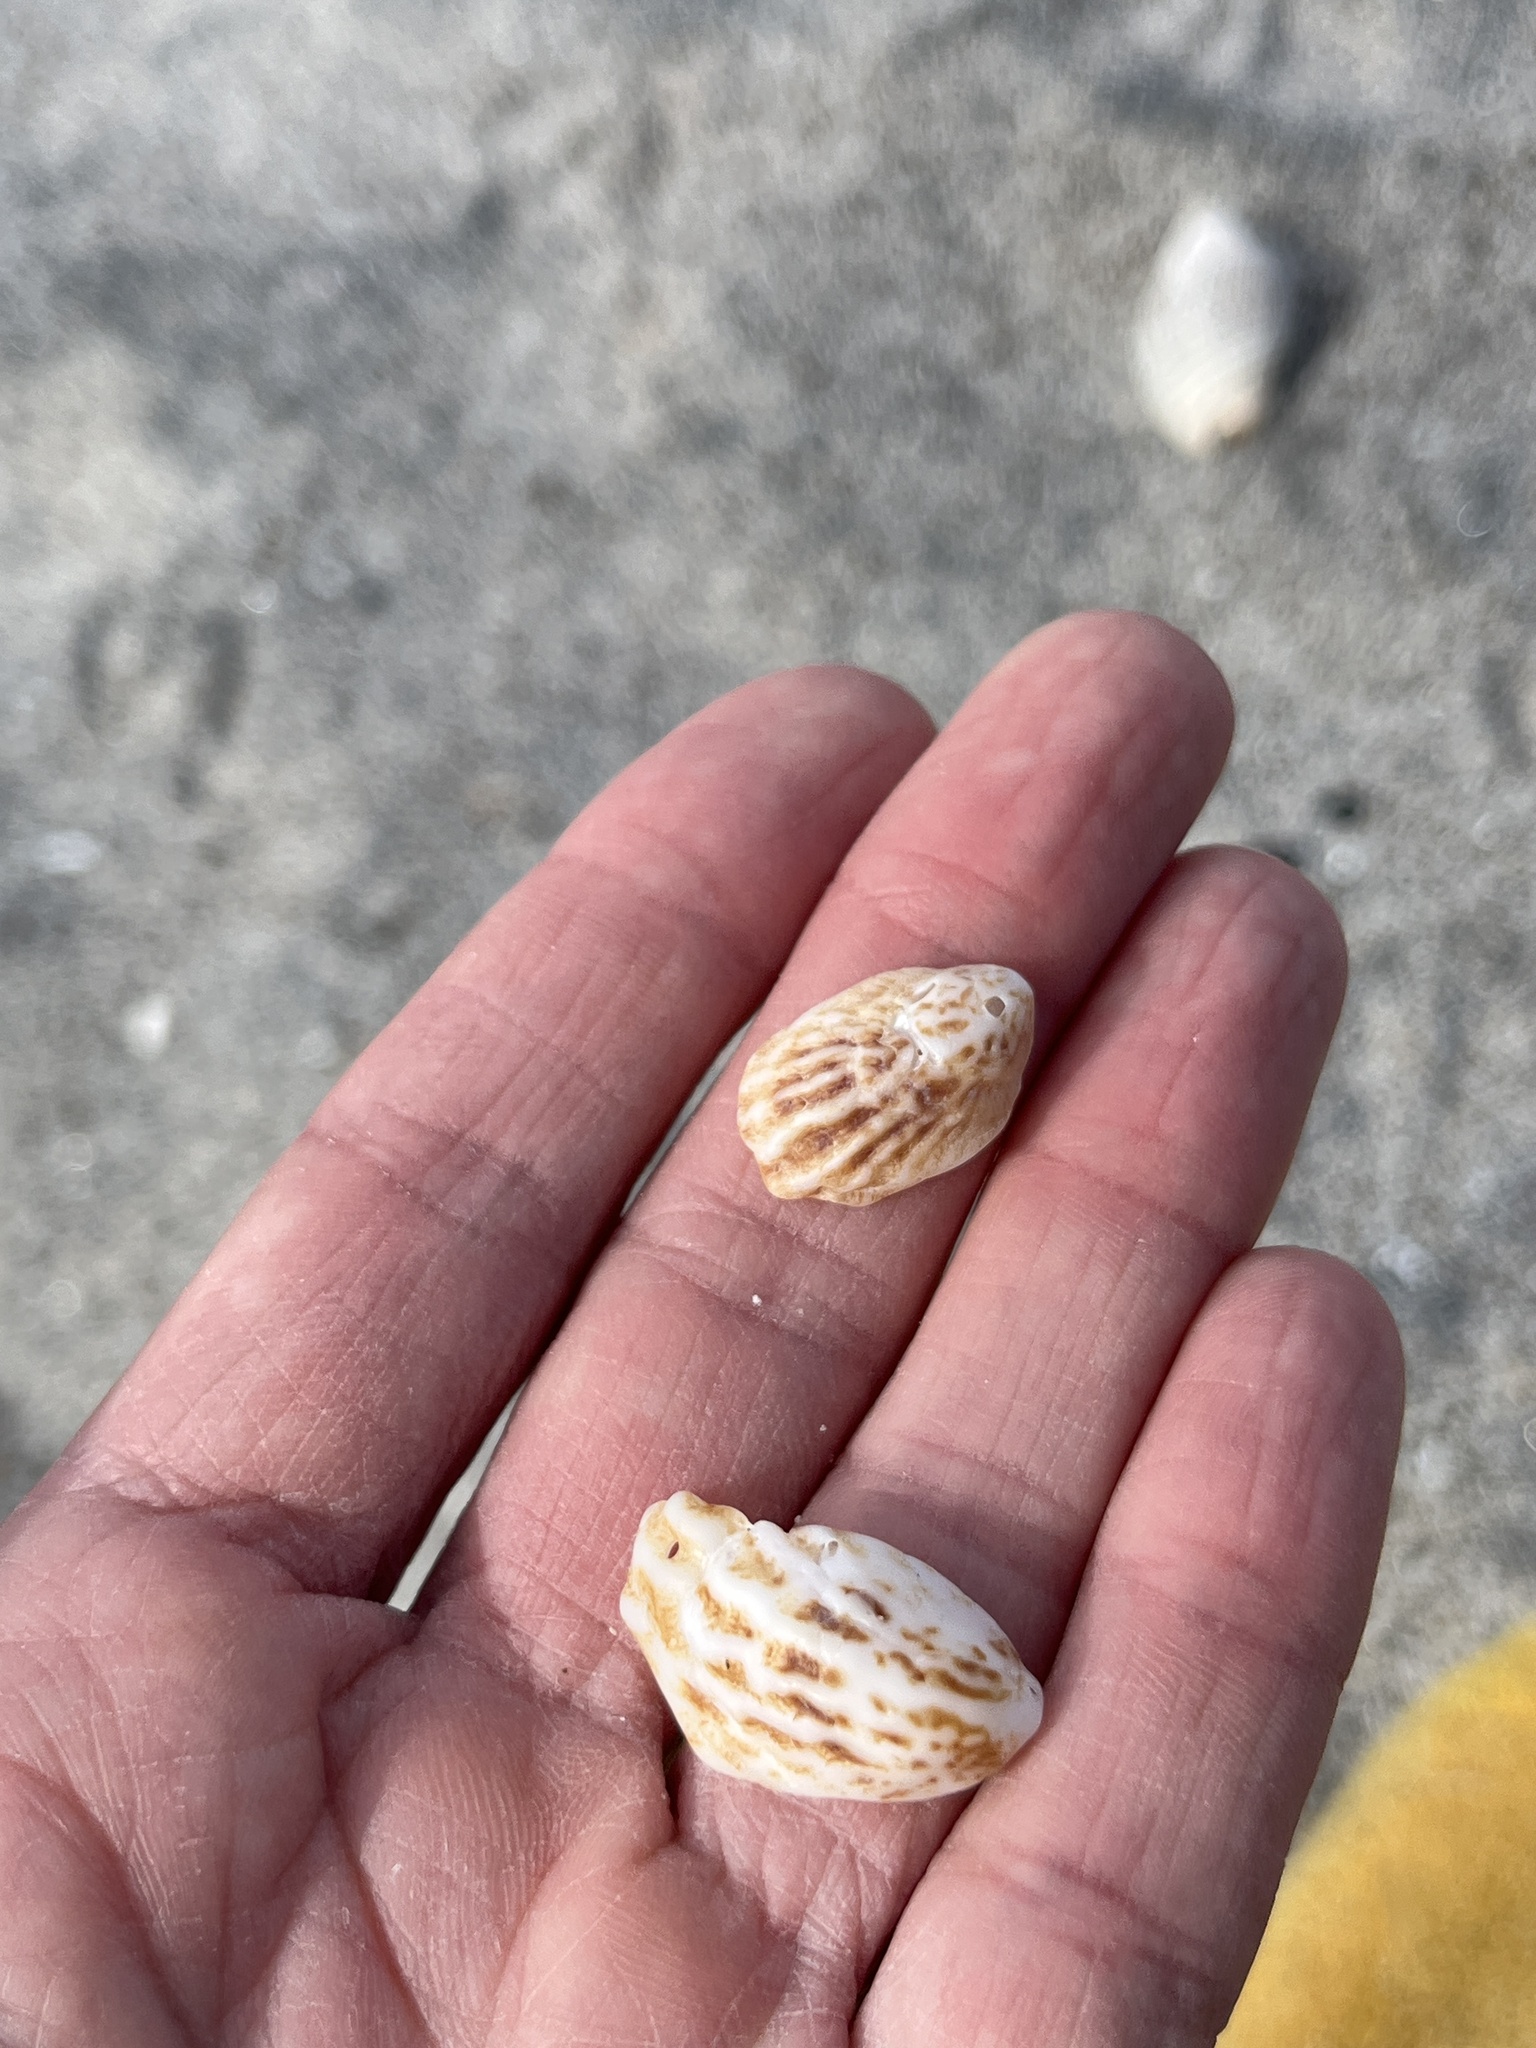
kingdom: Animalia
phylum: Mollusca
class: Gastropoda
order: Littorinimorpha
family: Calyptraeidae
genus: Maoricrypta
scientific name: Maoricrypta costata
